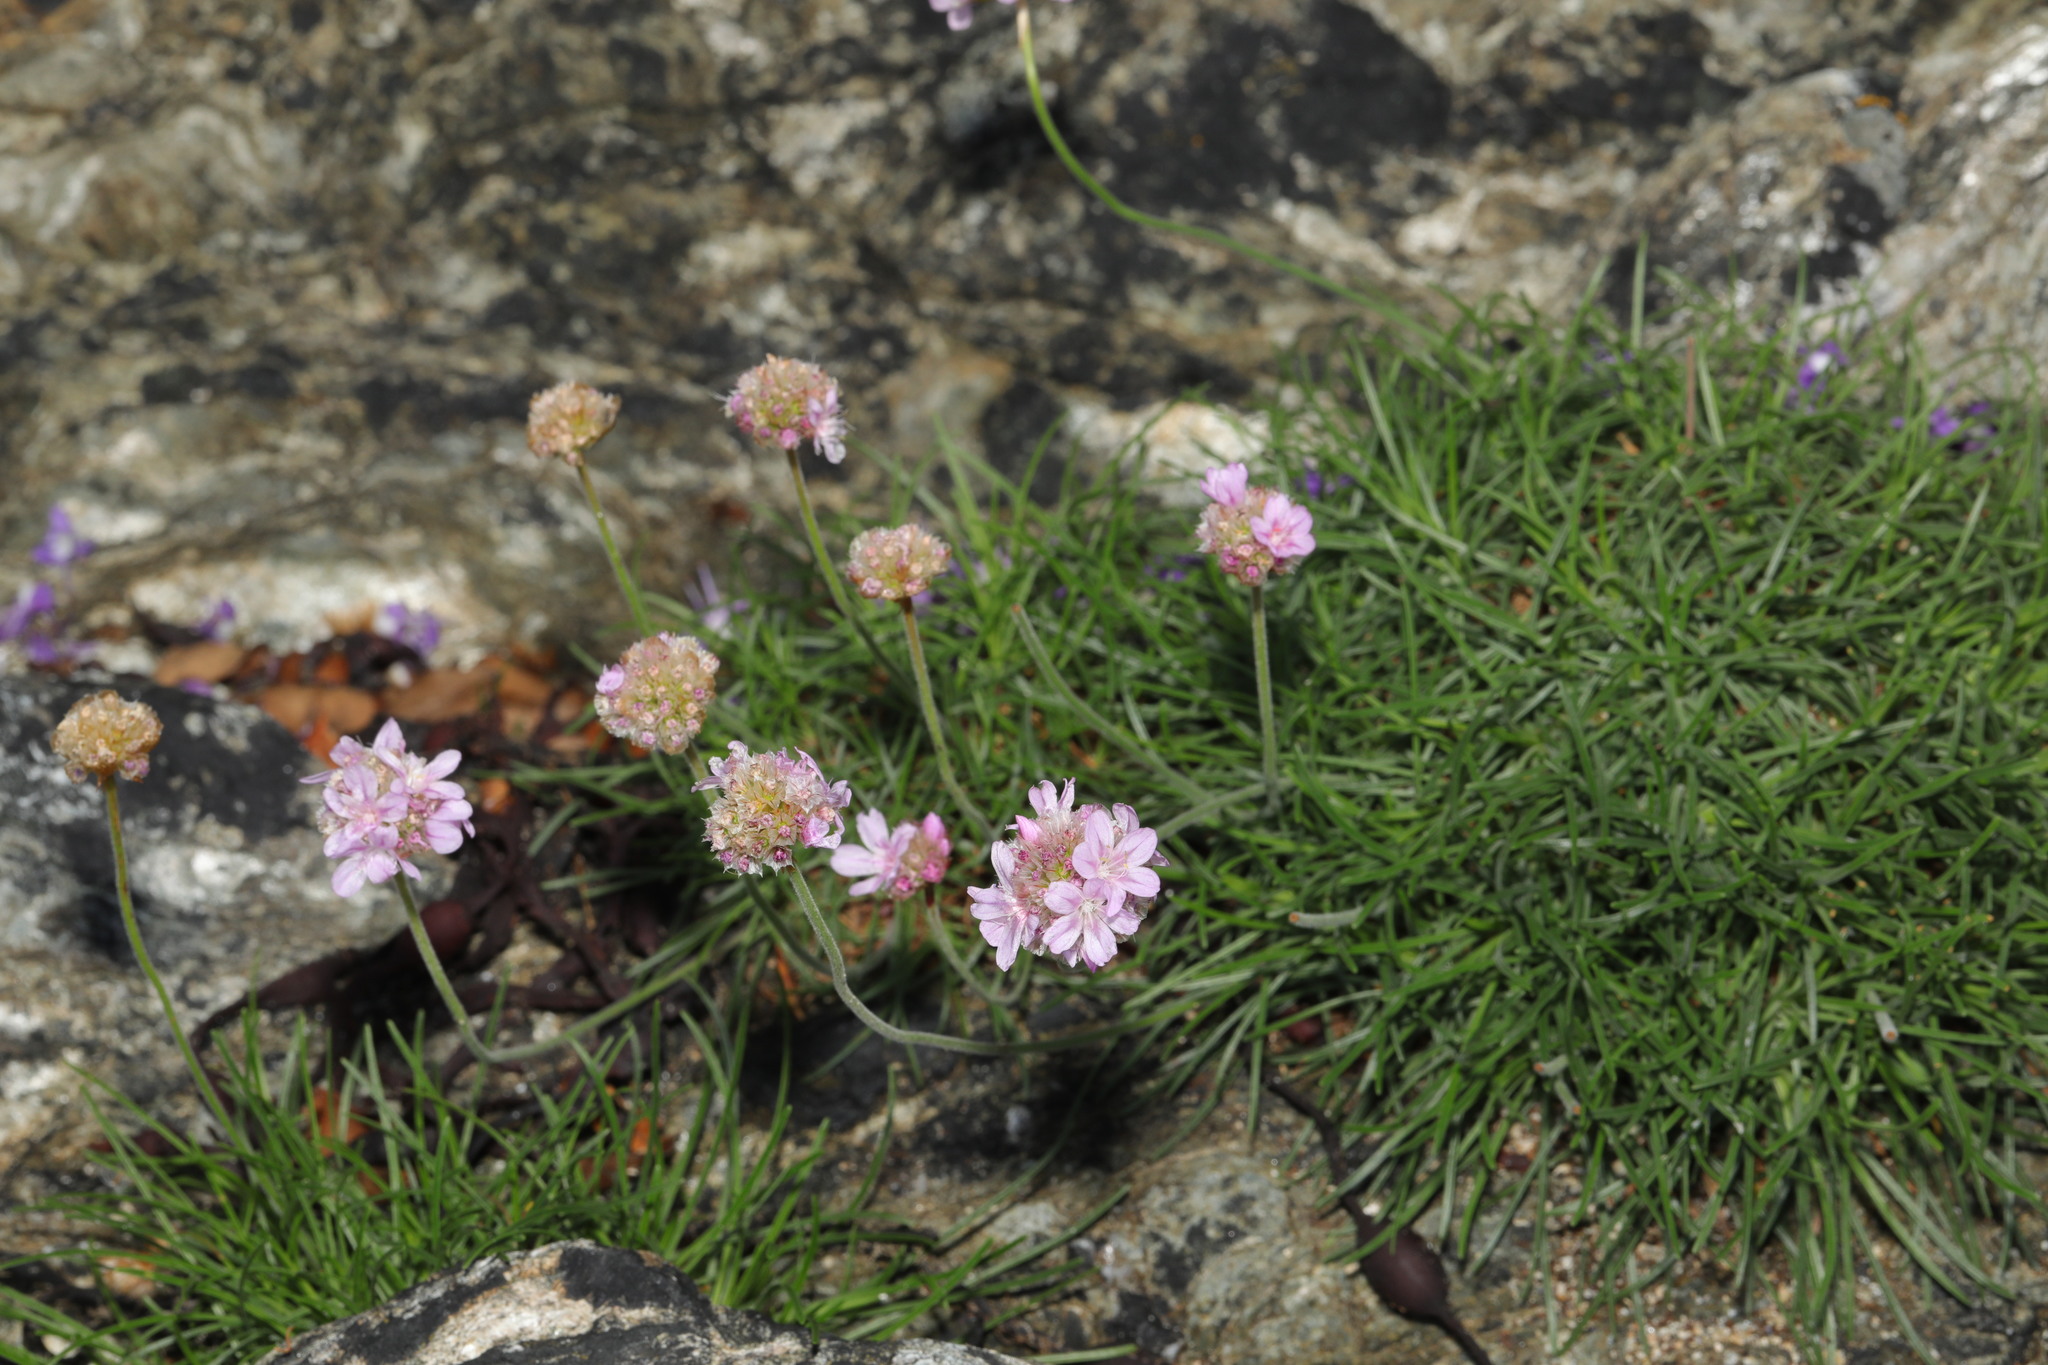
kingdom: Plantae
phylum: Tracheophyta
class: Magnoliopsida
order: Caryophyllales
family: Plumbaginaceae
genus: Armeria
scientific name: Armeria maritima
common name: Thrift
